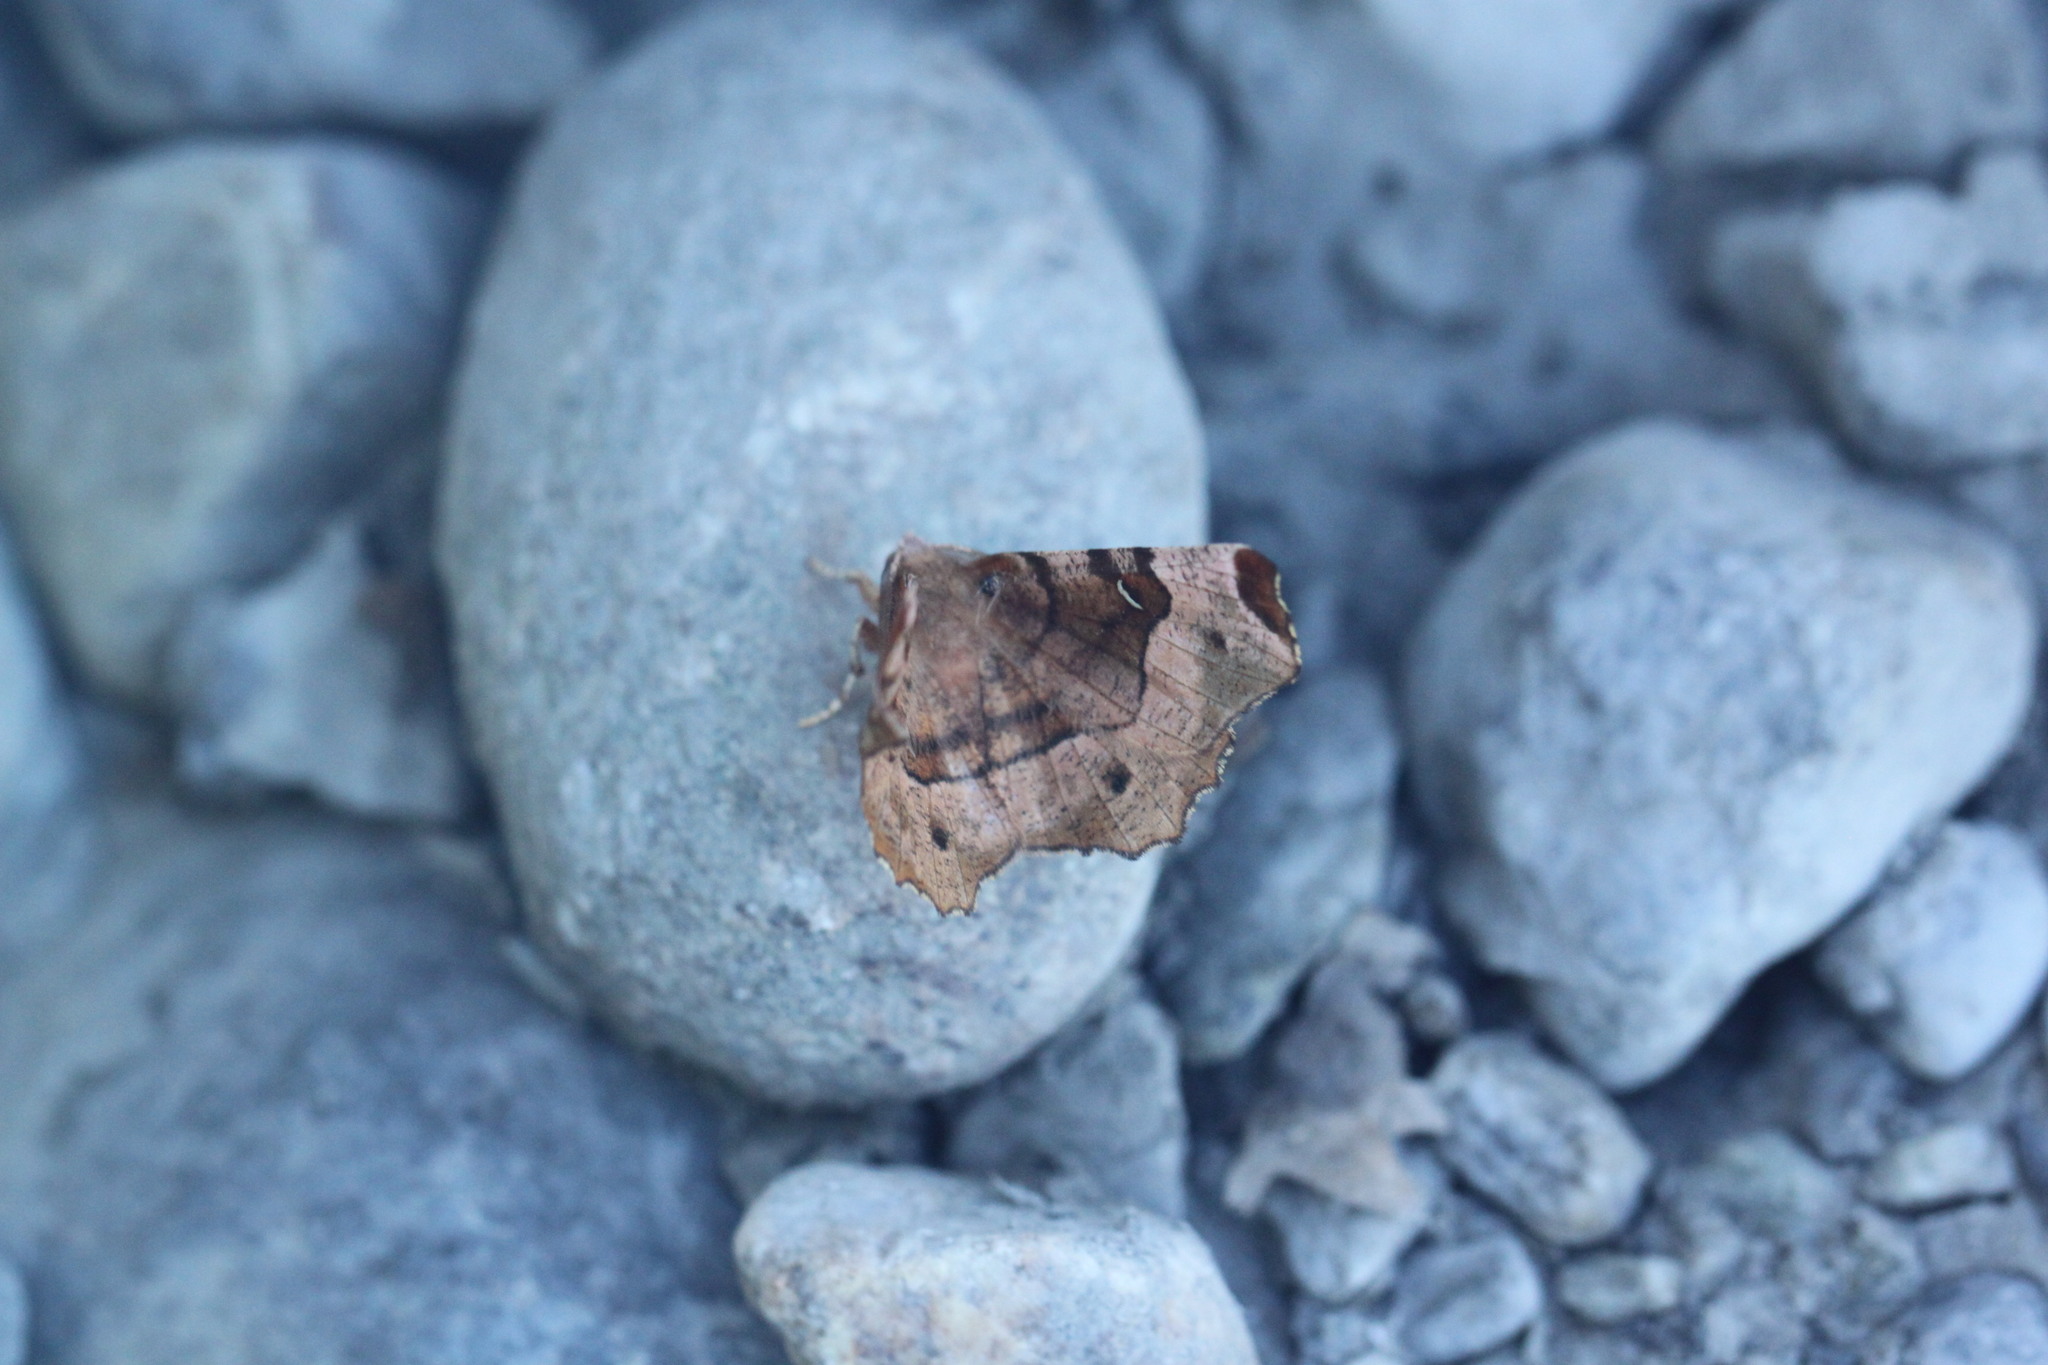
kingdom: Animalia
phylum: Arthropoda
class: Insecta
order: Lepidoptera
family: Geometridae
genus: Selenia
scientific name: Selenia tetralunaria
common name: Purple thorn
